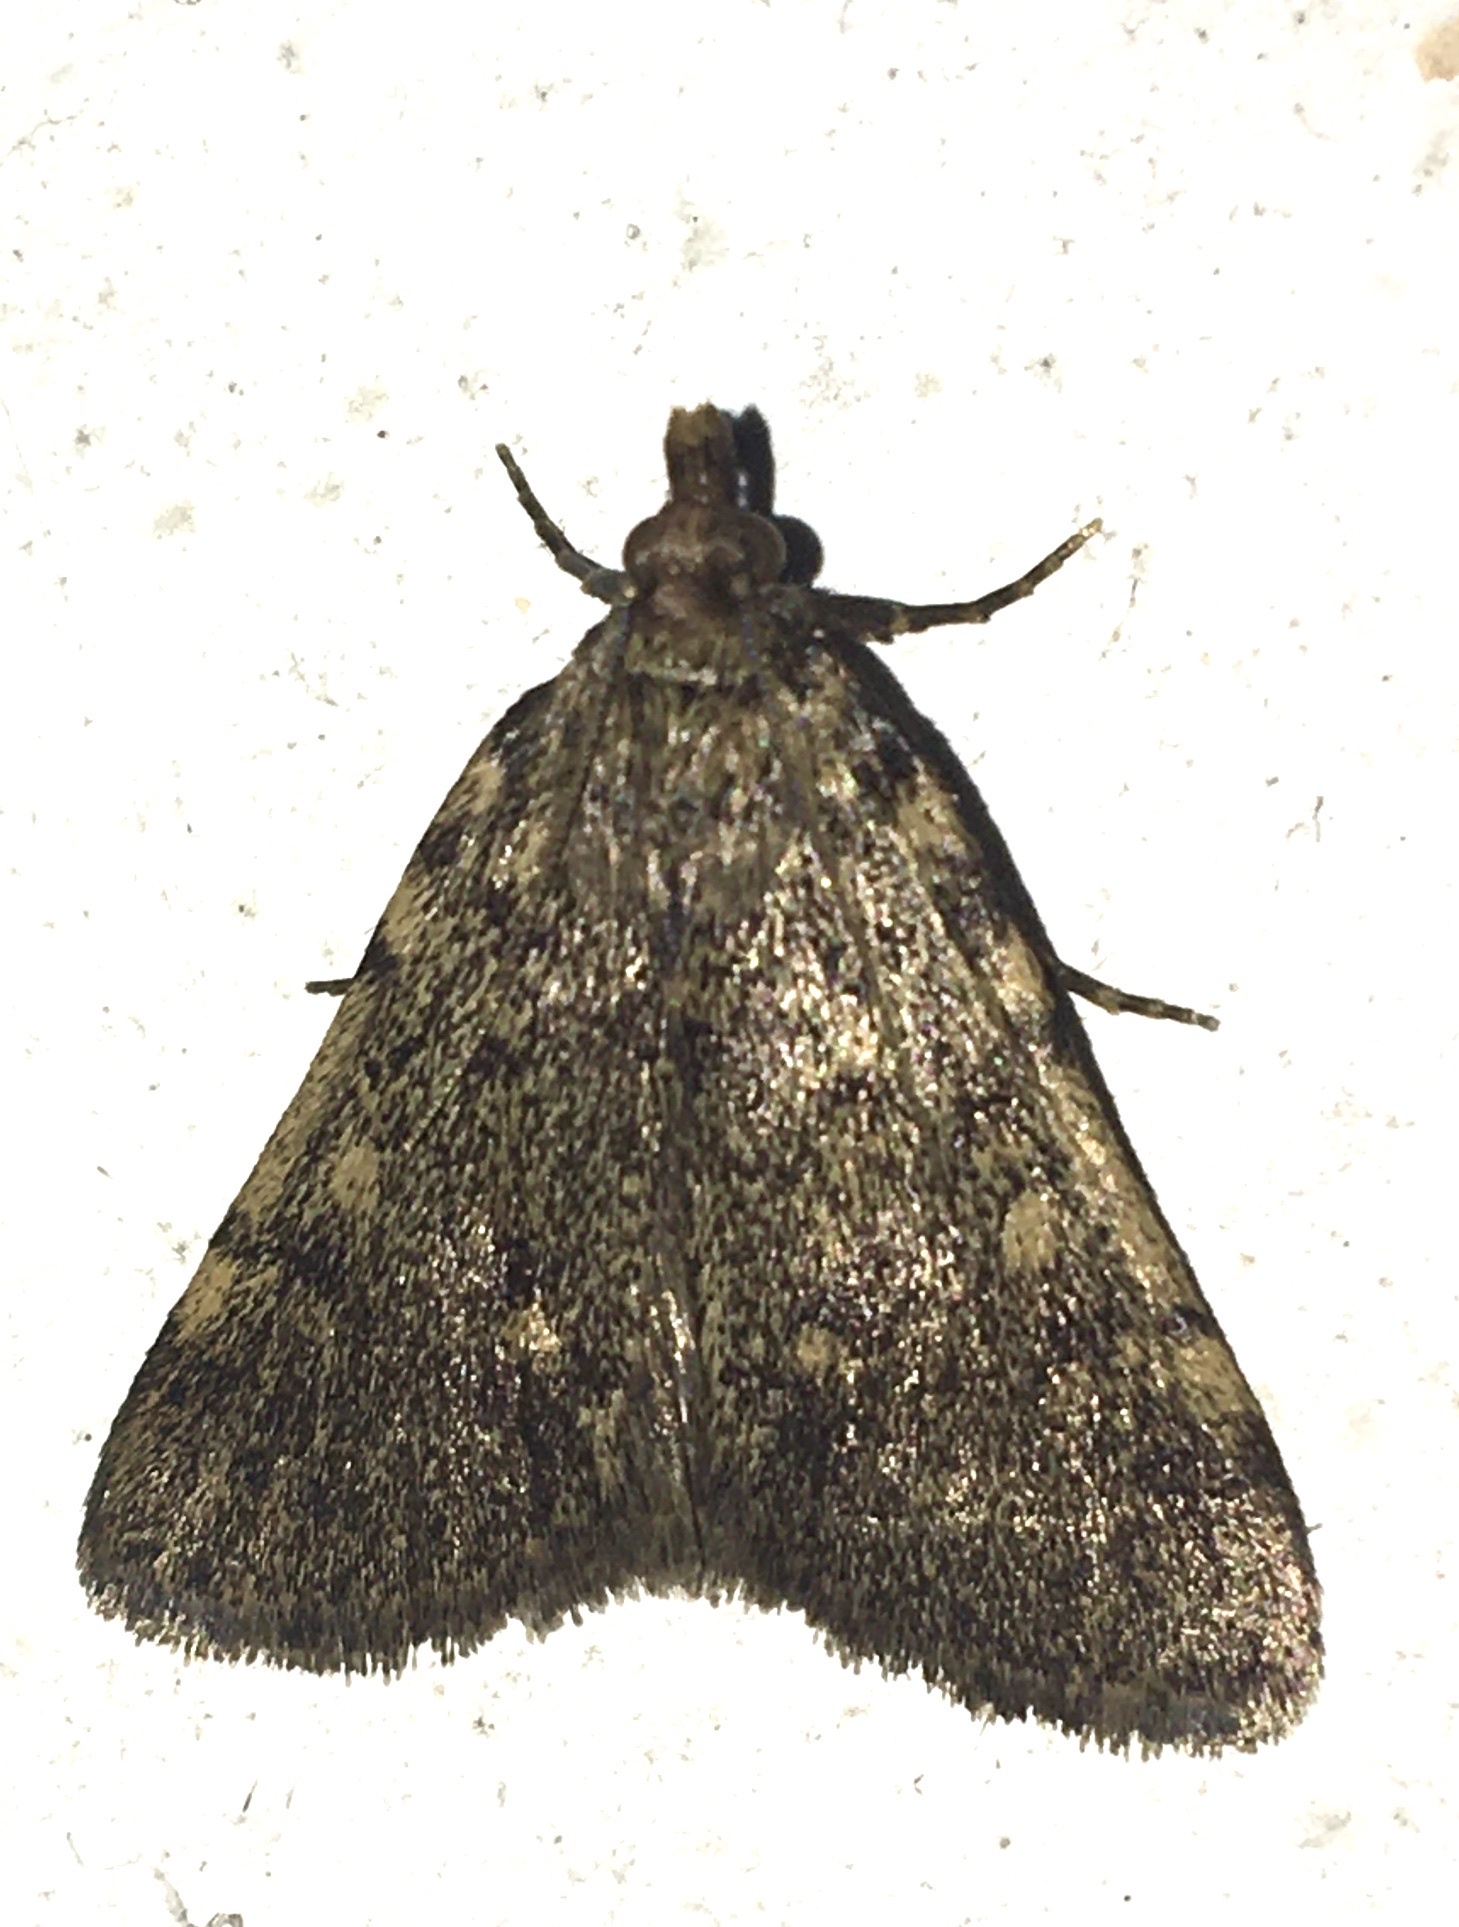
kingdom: Animalia
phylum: Arthropoda
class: Insecta
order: Lepidoptera
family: Pyralidae
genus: Aglossa
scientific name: Aglossa pinguinalis
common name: Large tabby
